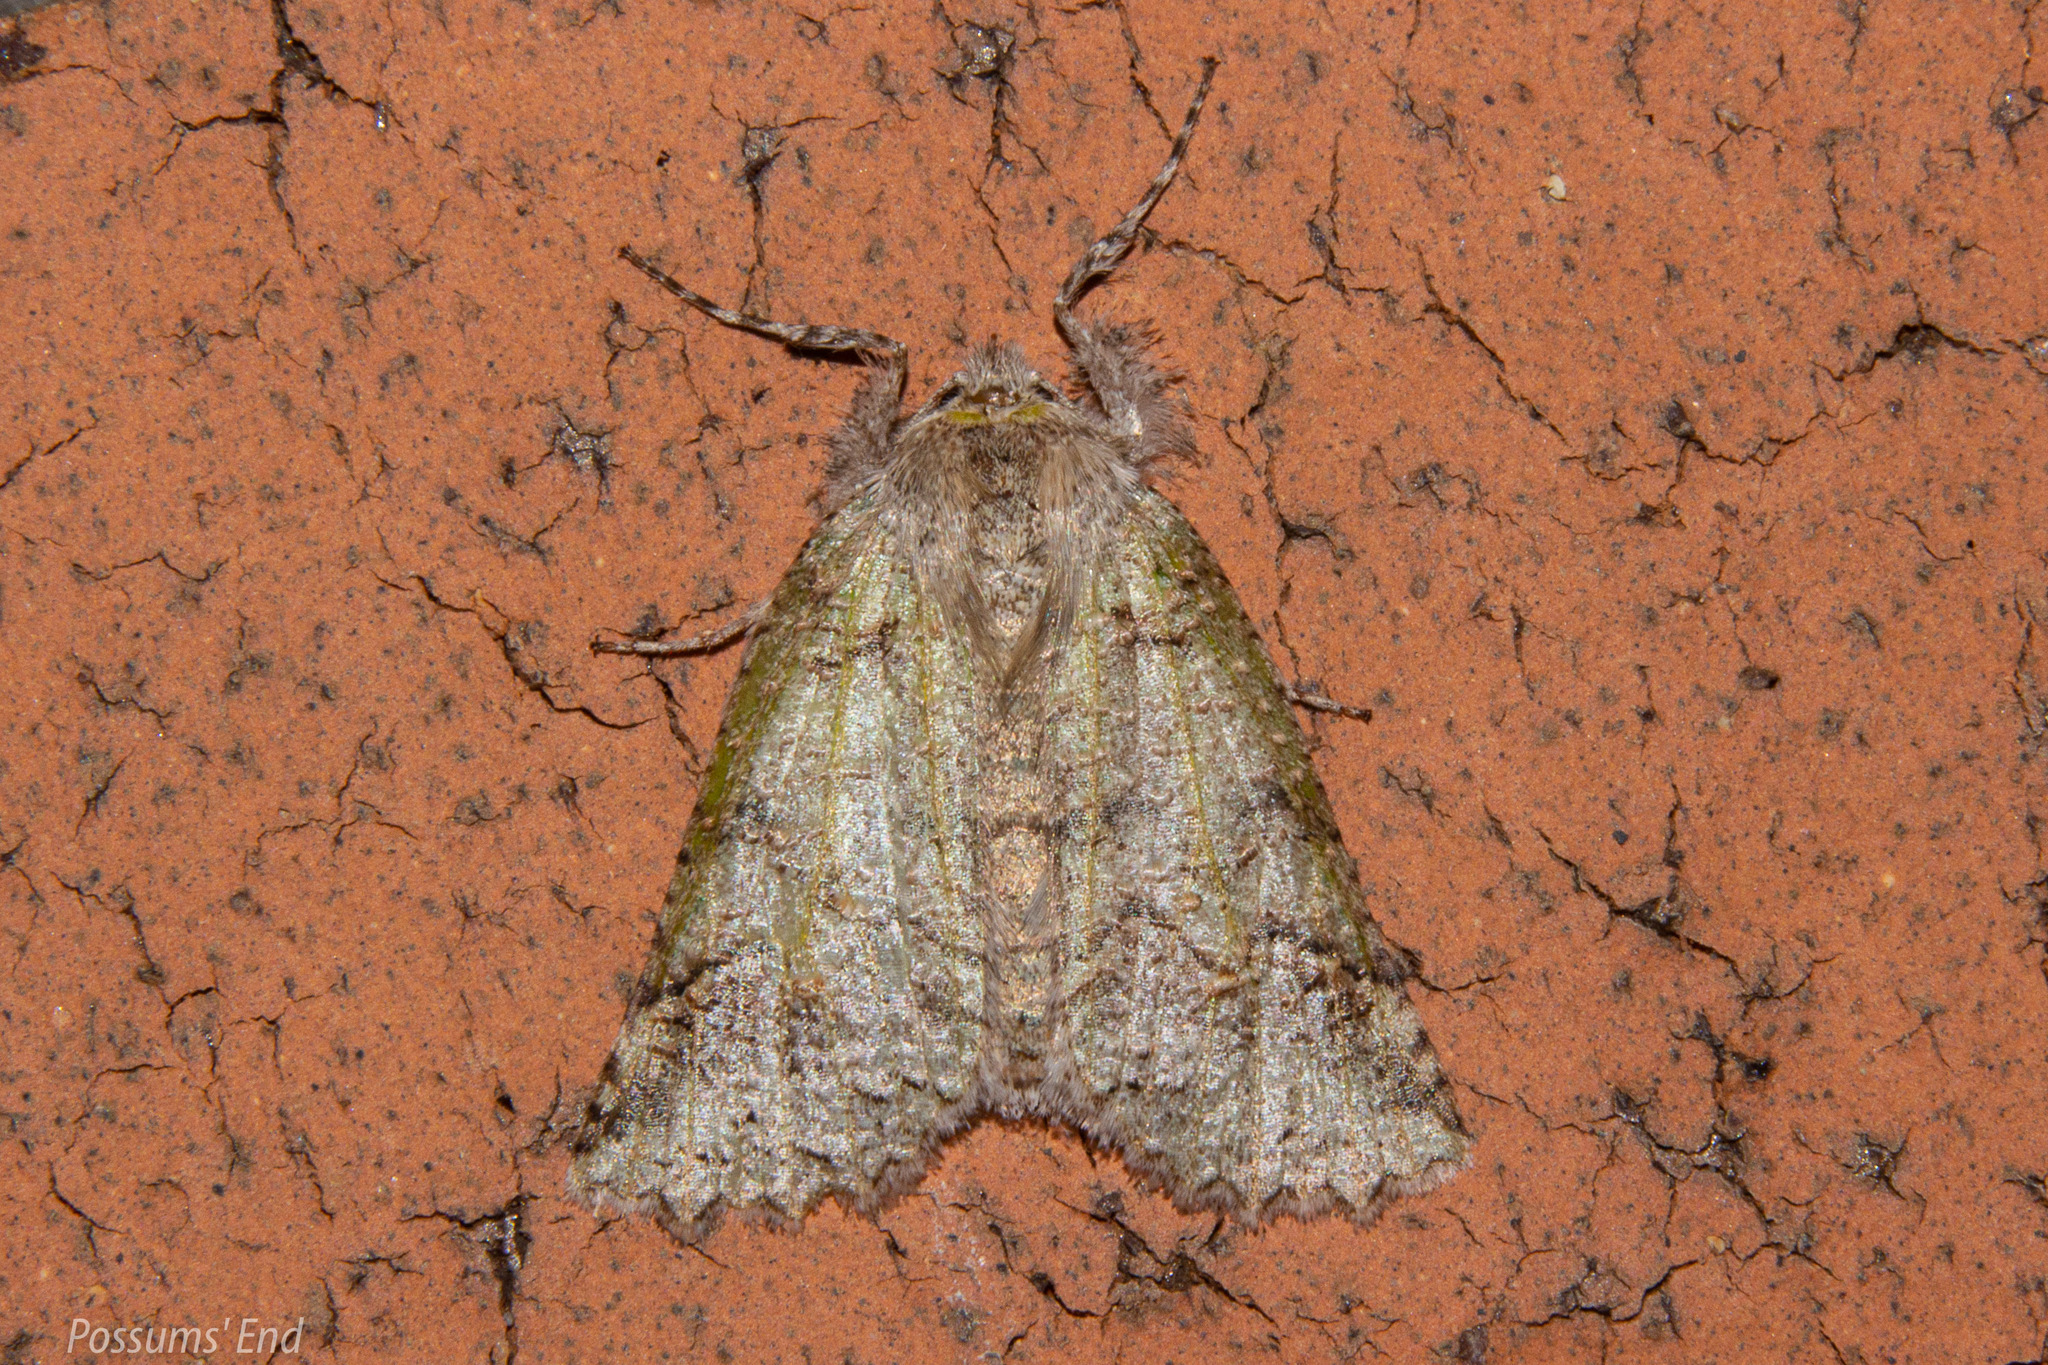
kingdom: Animalia
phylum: Arthropoda
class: Insecta
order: Lepidoptera
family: Geometridae
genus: Declana
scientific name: Declana floccosa
